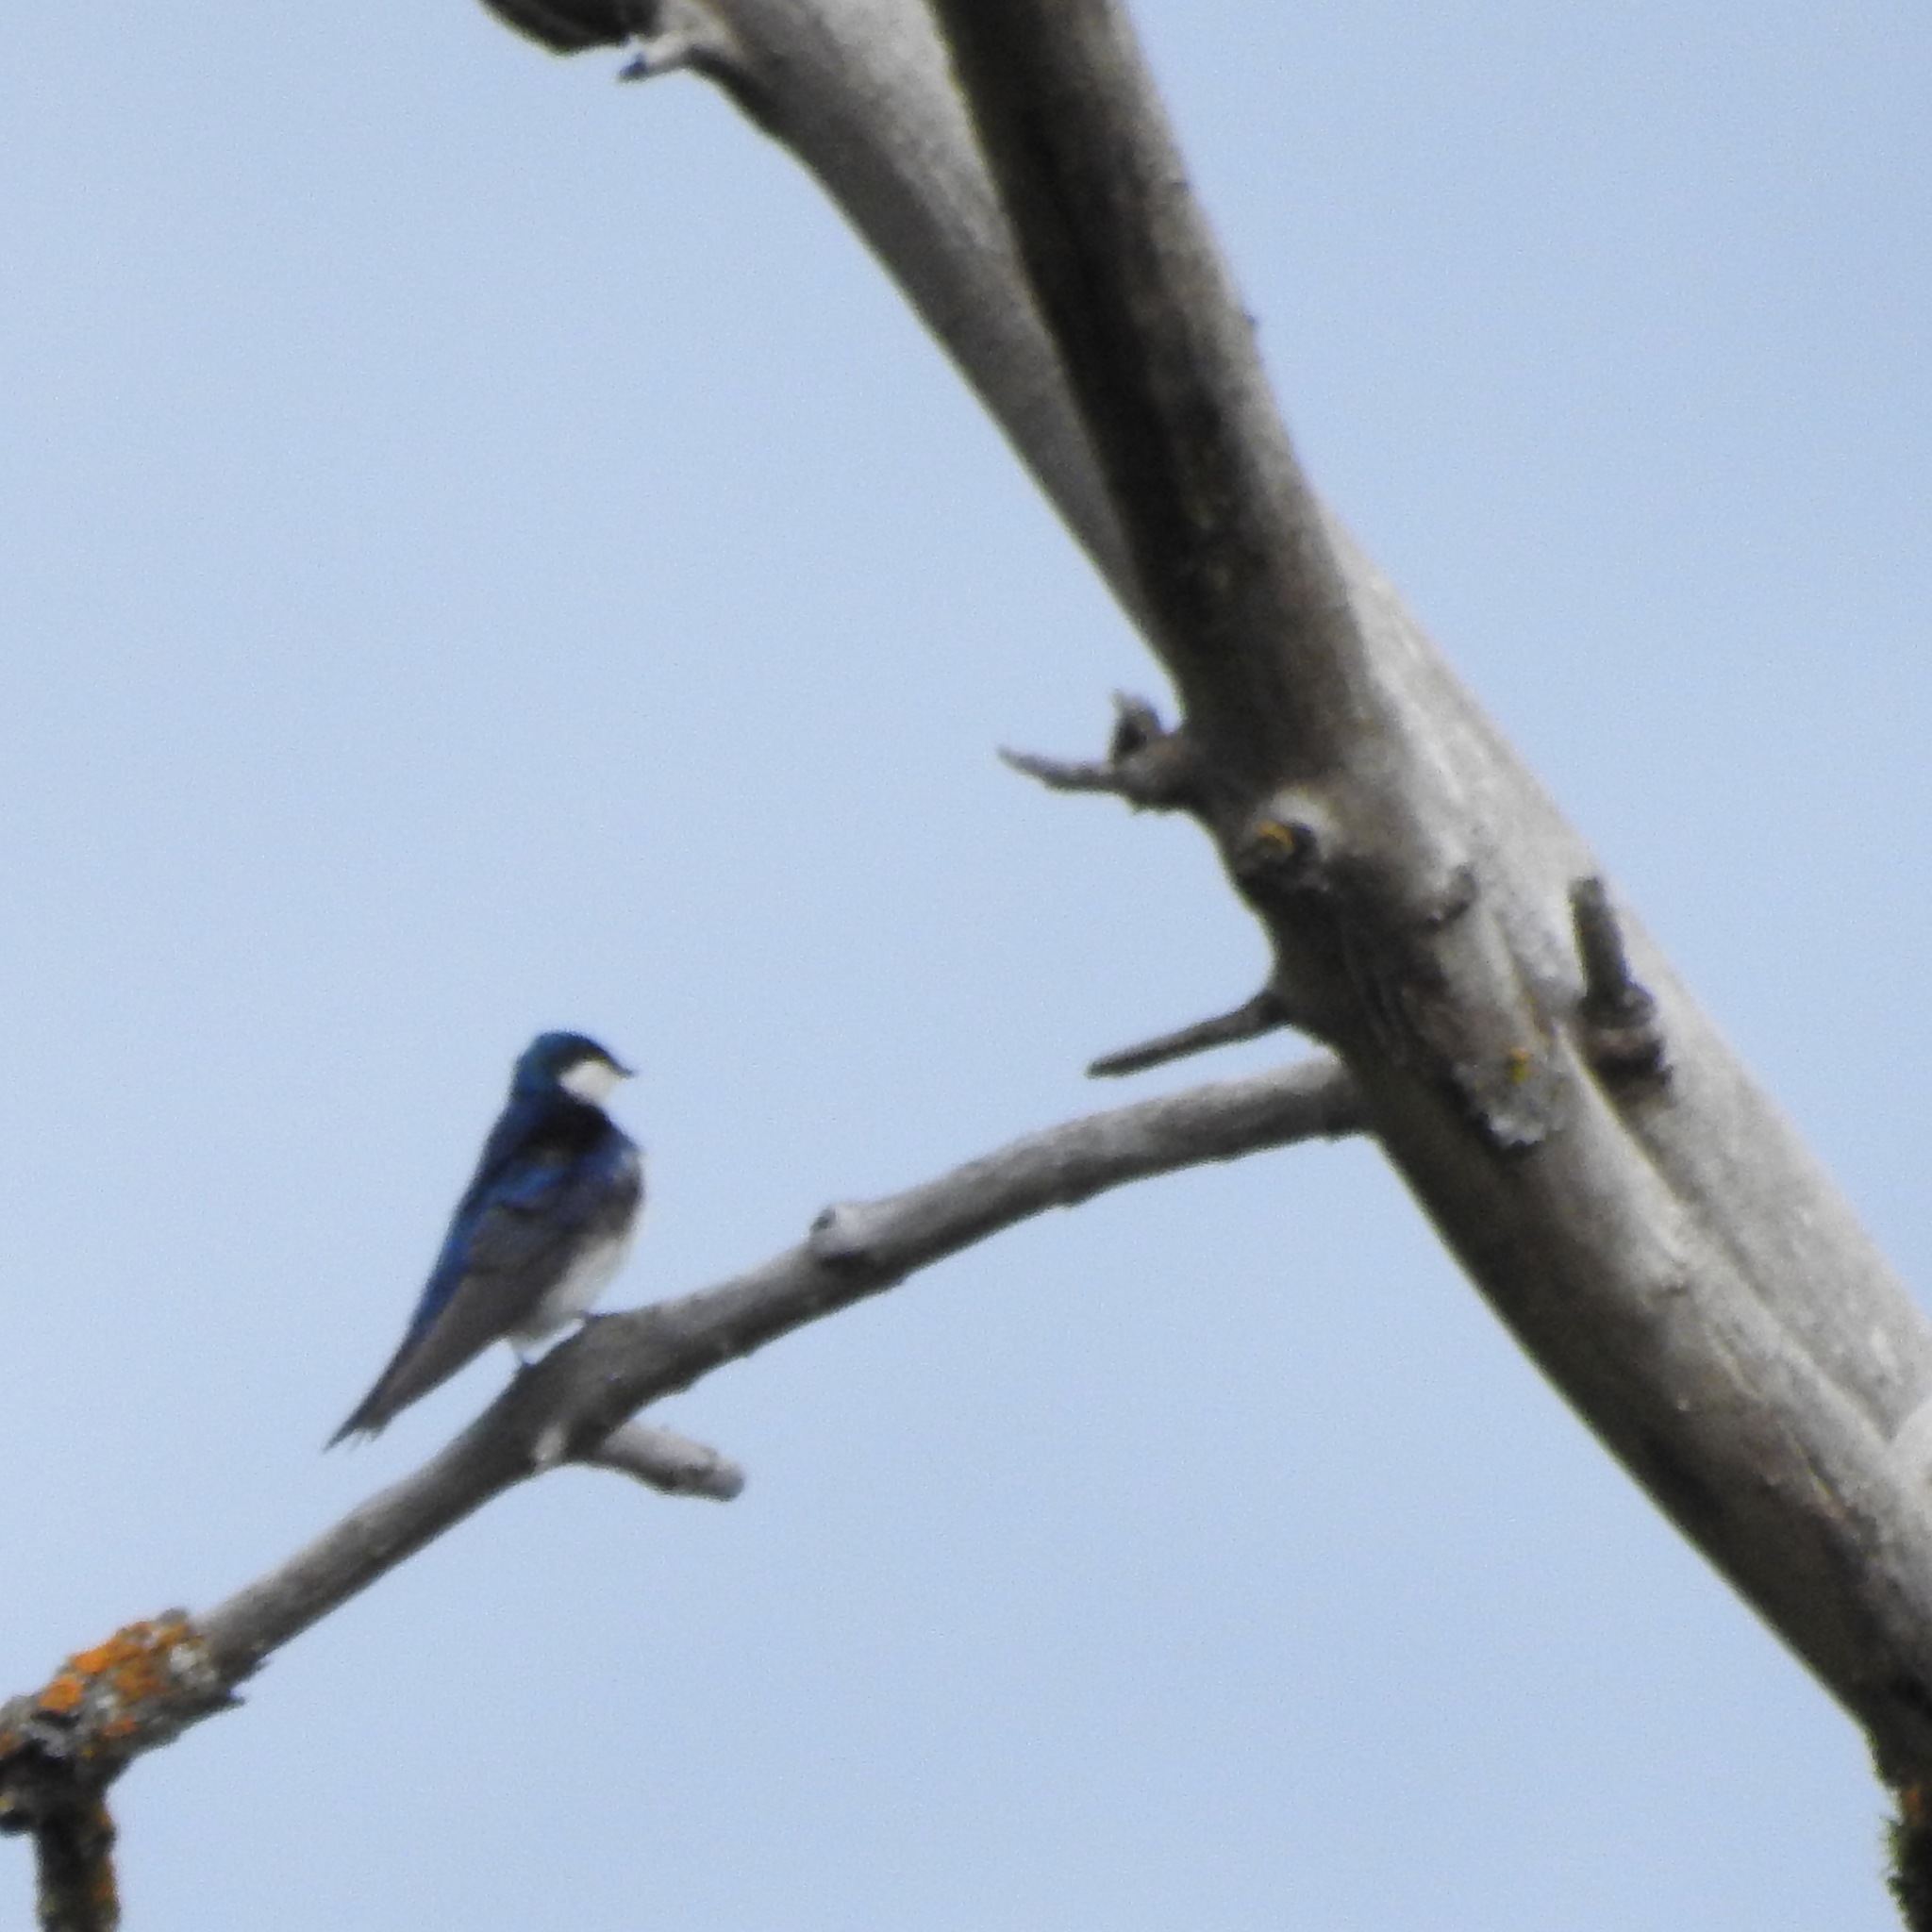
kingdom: Animalia
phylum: Chordata
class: Aves
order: Passeriformes
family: Hirundinidae
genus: Tachycineta
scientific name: Tachycineta bicolor
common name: Tree swallow
